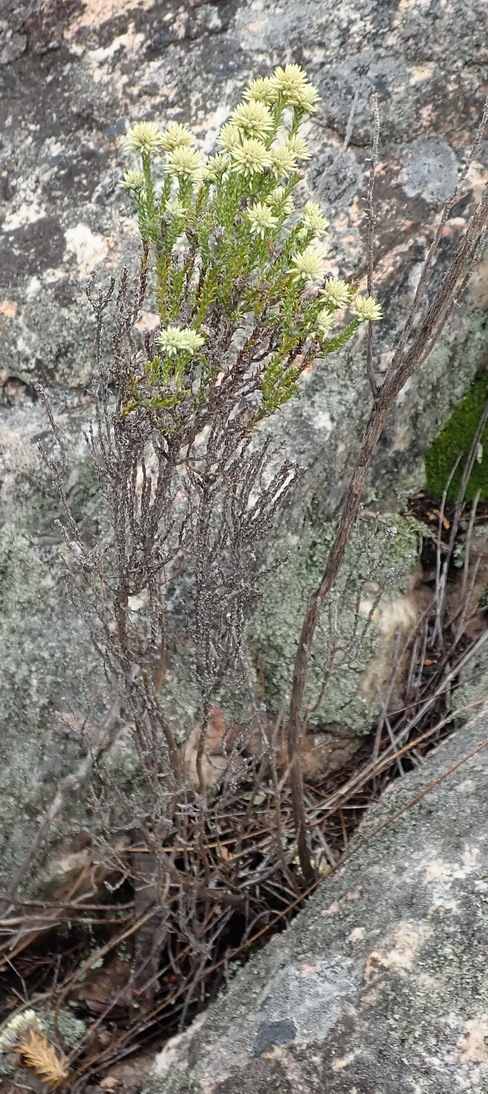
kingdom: Plantae
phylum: Tracheophyta
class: Magnoliopsida
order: Asterales
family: Asteraceae
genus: Seriphium
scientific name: Seriphium spirale
